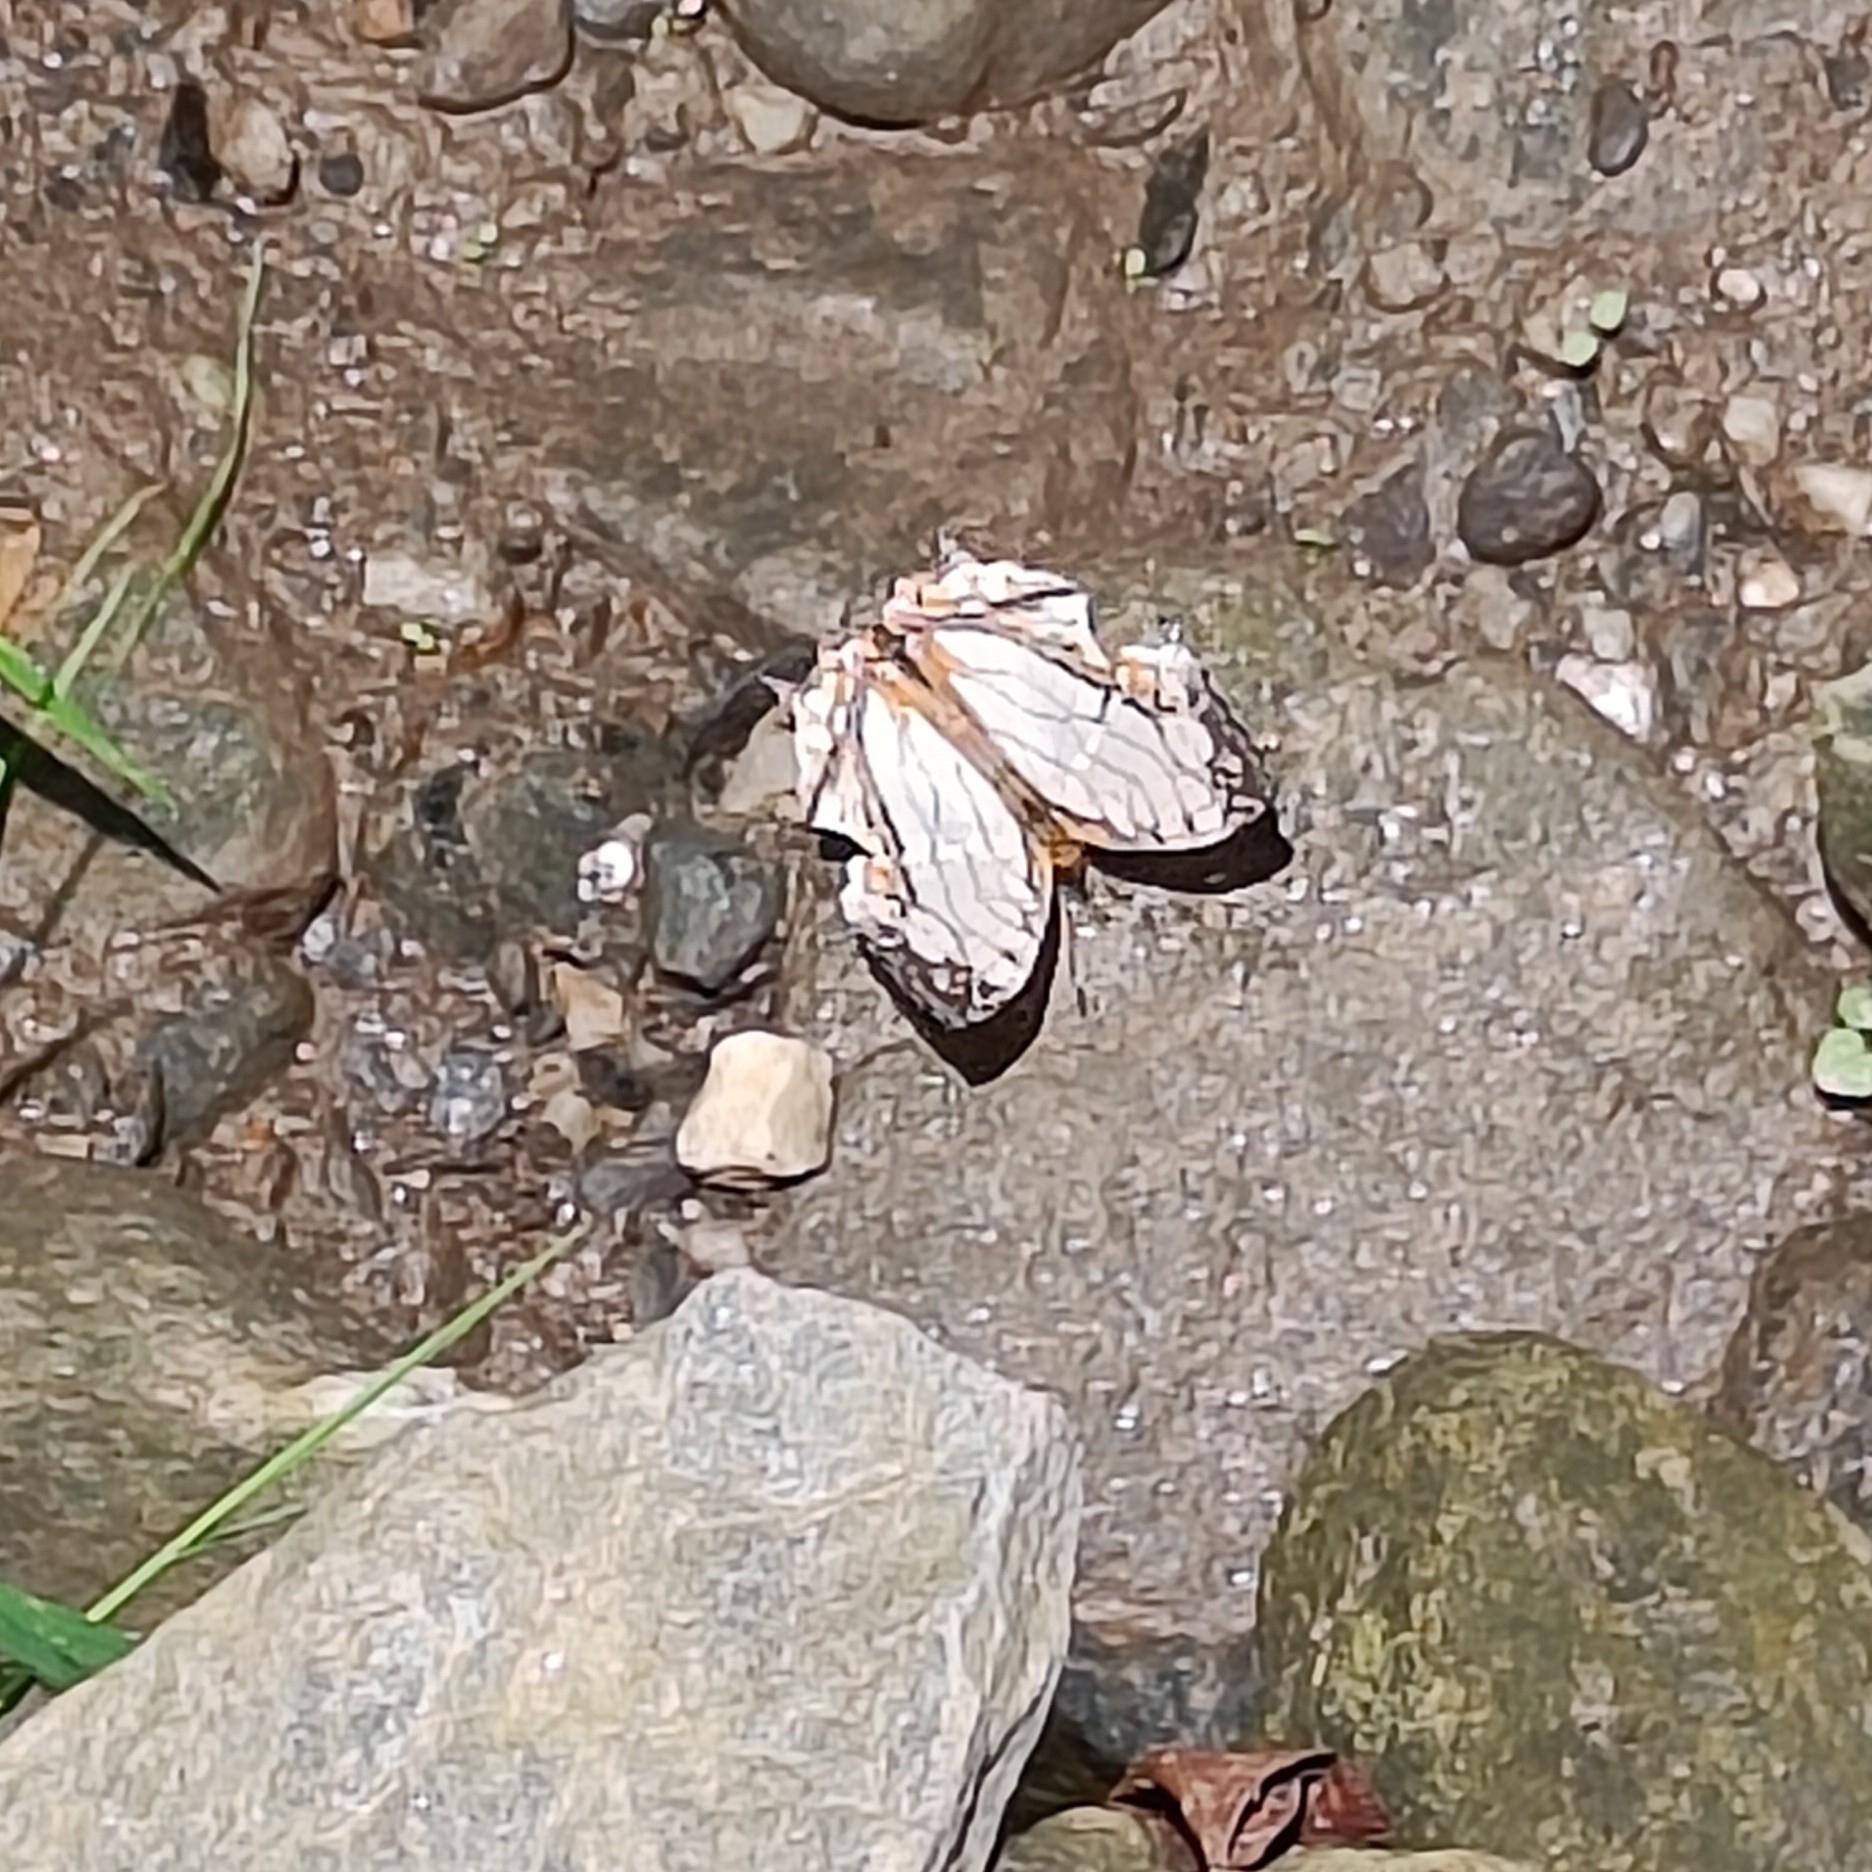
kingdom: Animalia
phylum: Arthropoda
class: Insecta
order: Lepidoptera
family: Nymphalidae
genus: Cyrestis
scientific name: Cyrestis thyodamas
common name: Common mapwing
